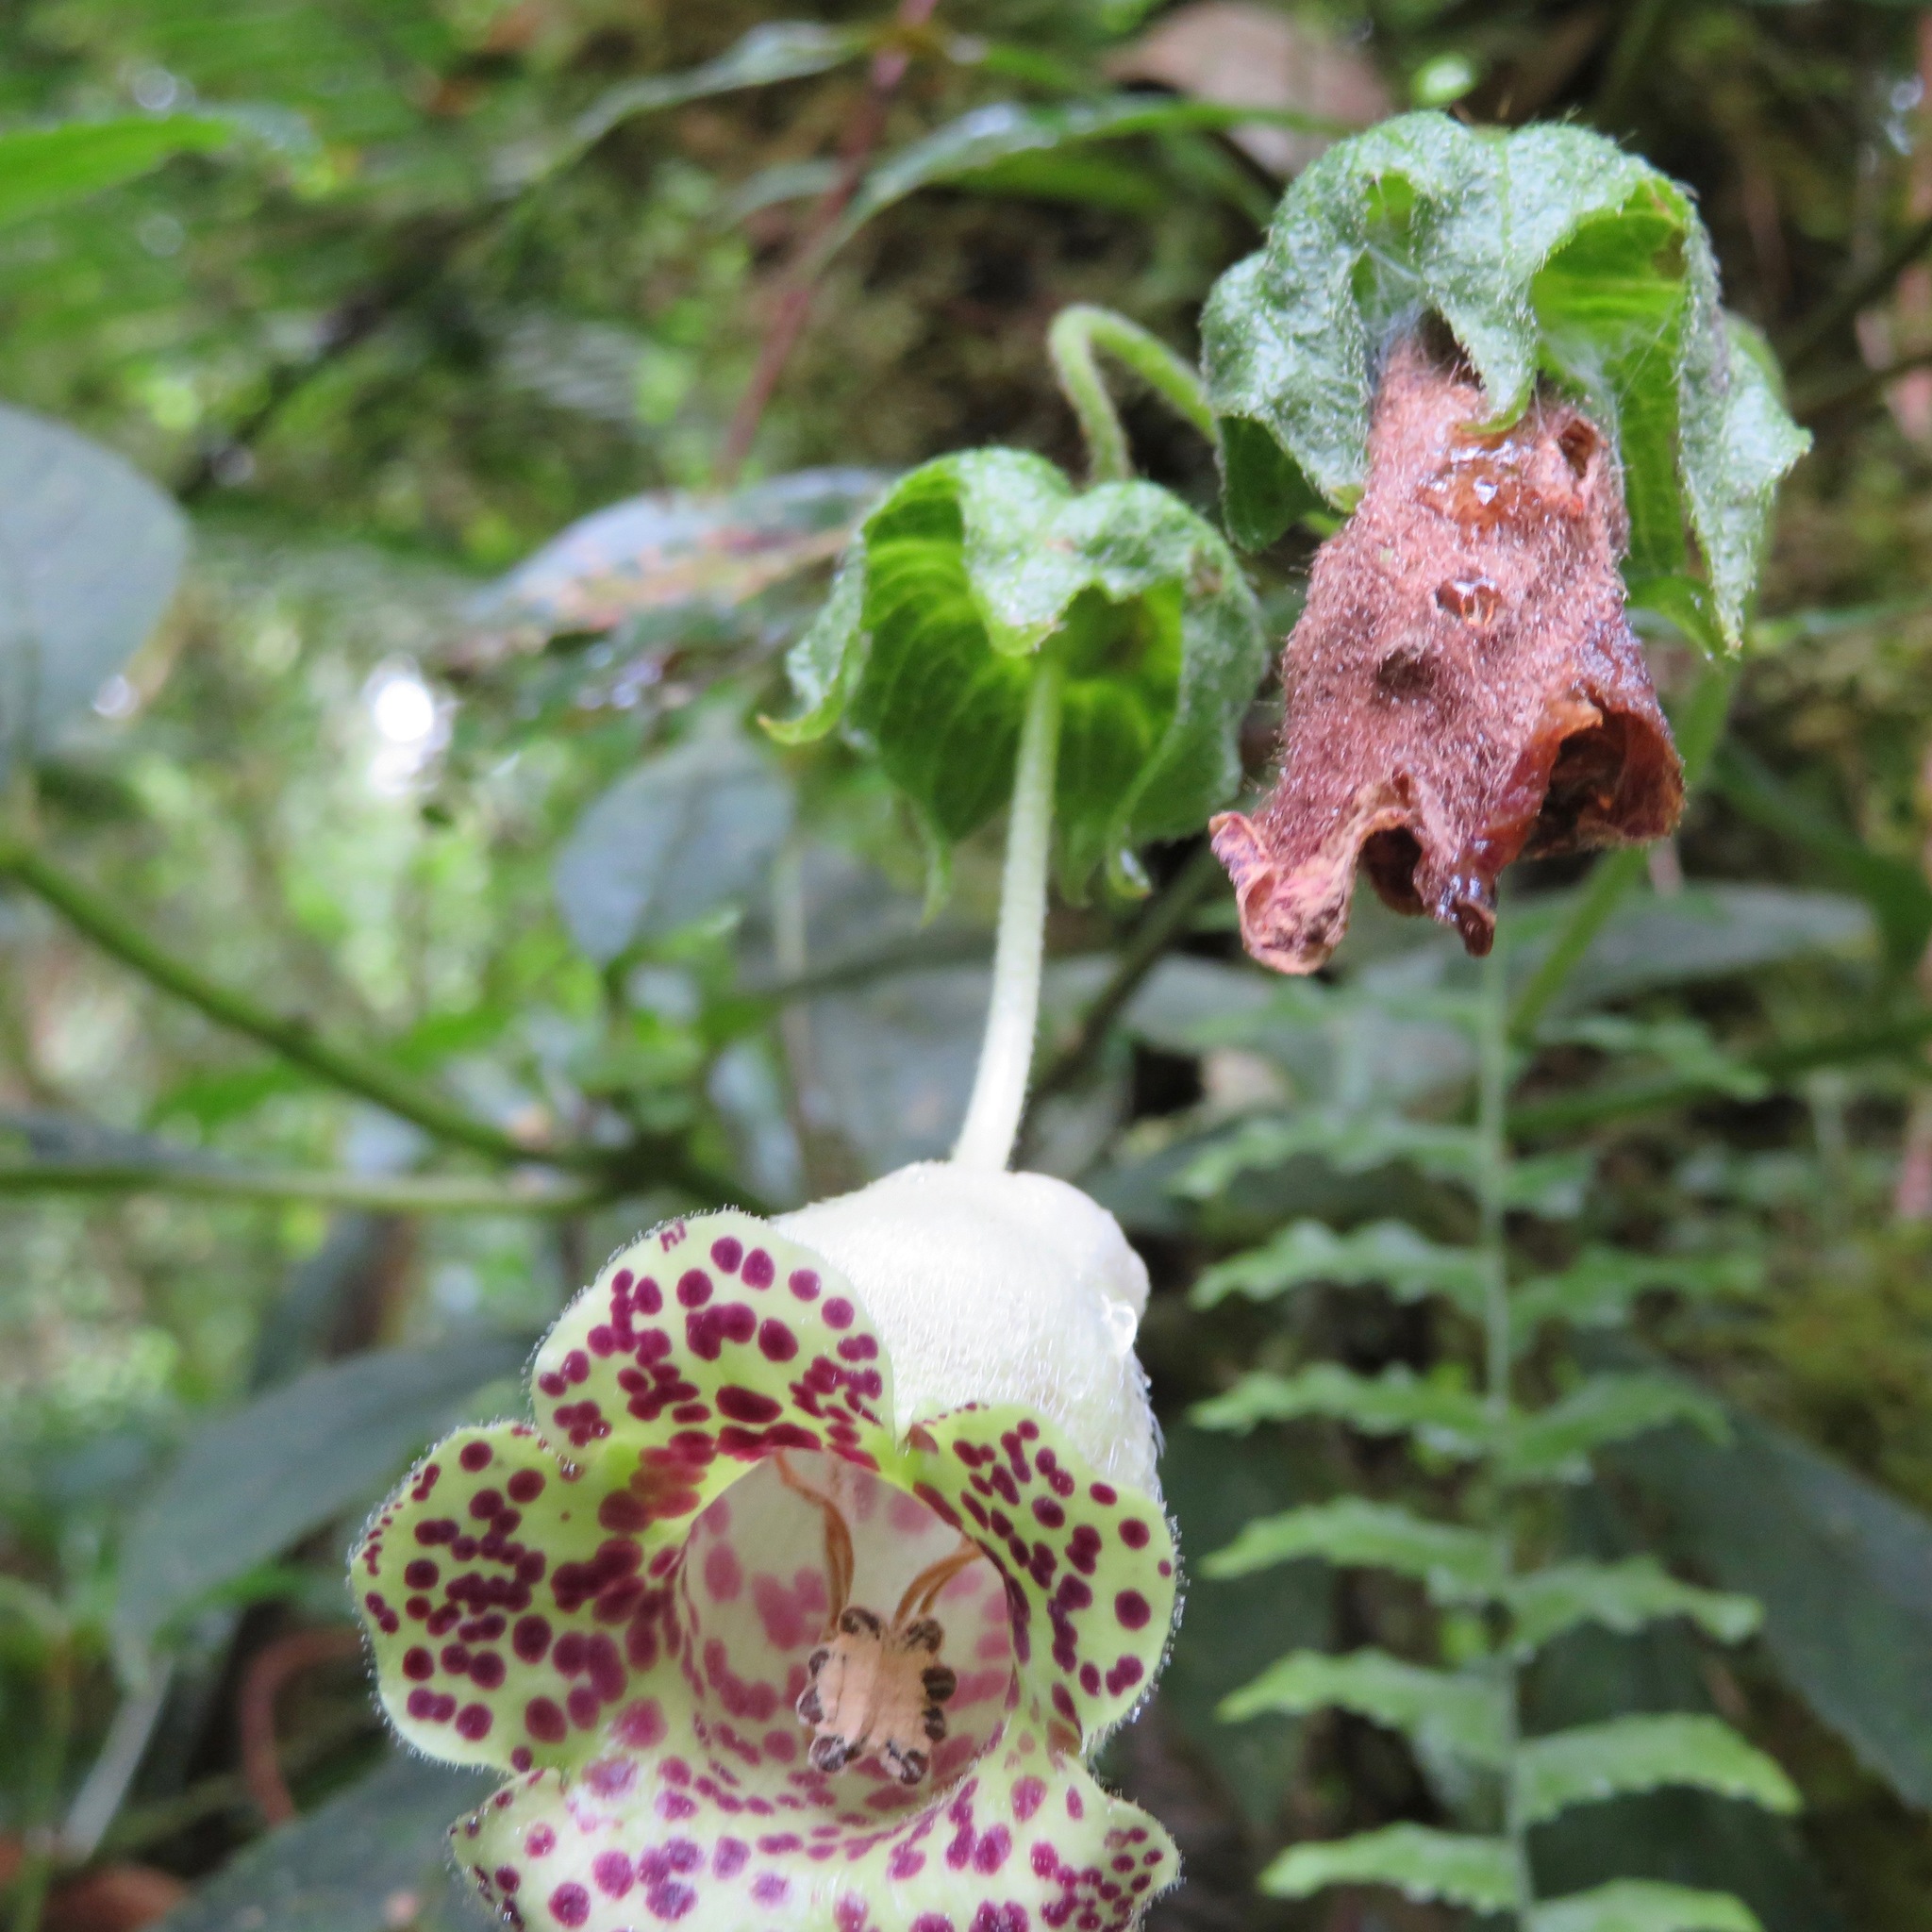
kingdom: Plantae
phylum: Tracheophyta
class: Magnoliopsida
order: Lamiales
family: Gesneriaceae
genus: Kohleria
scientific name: Kohleria tigridia
